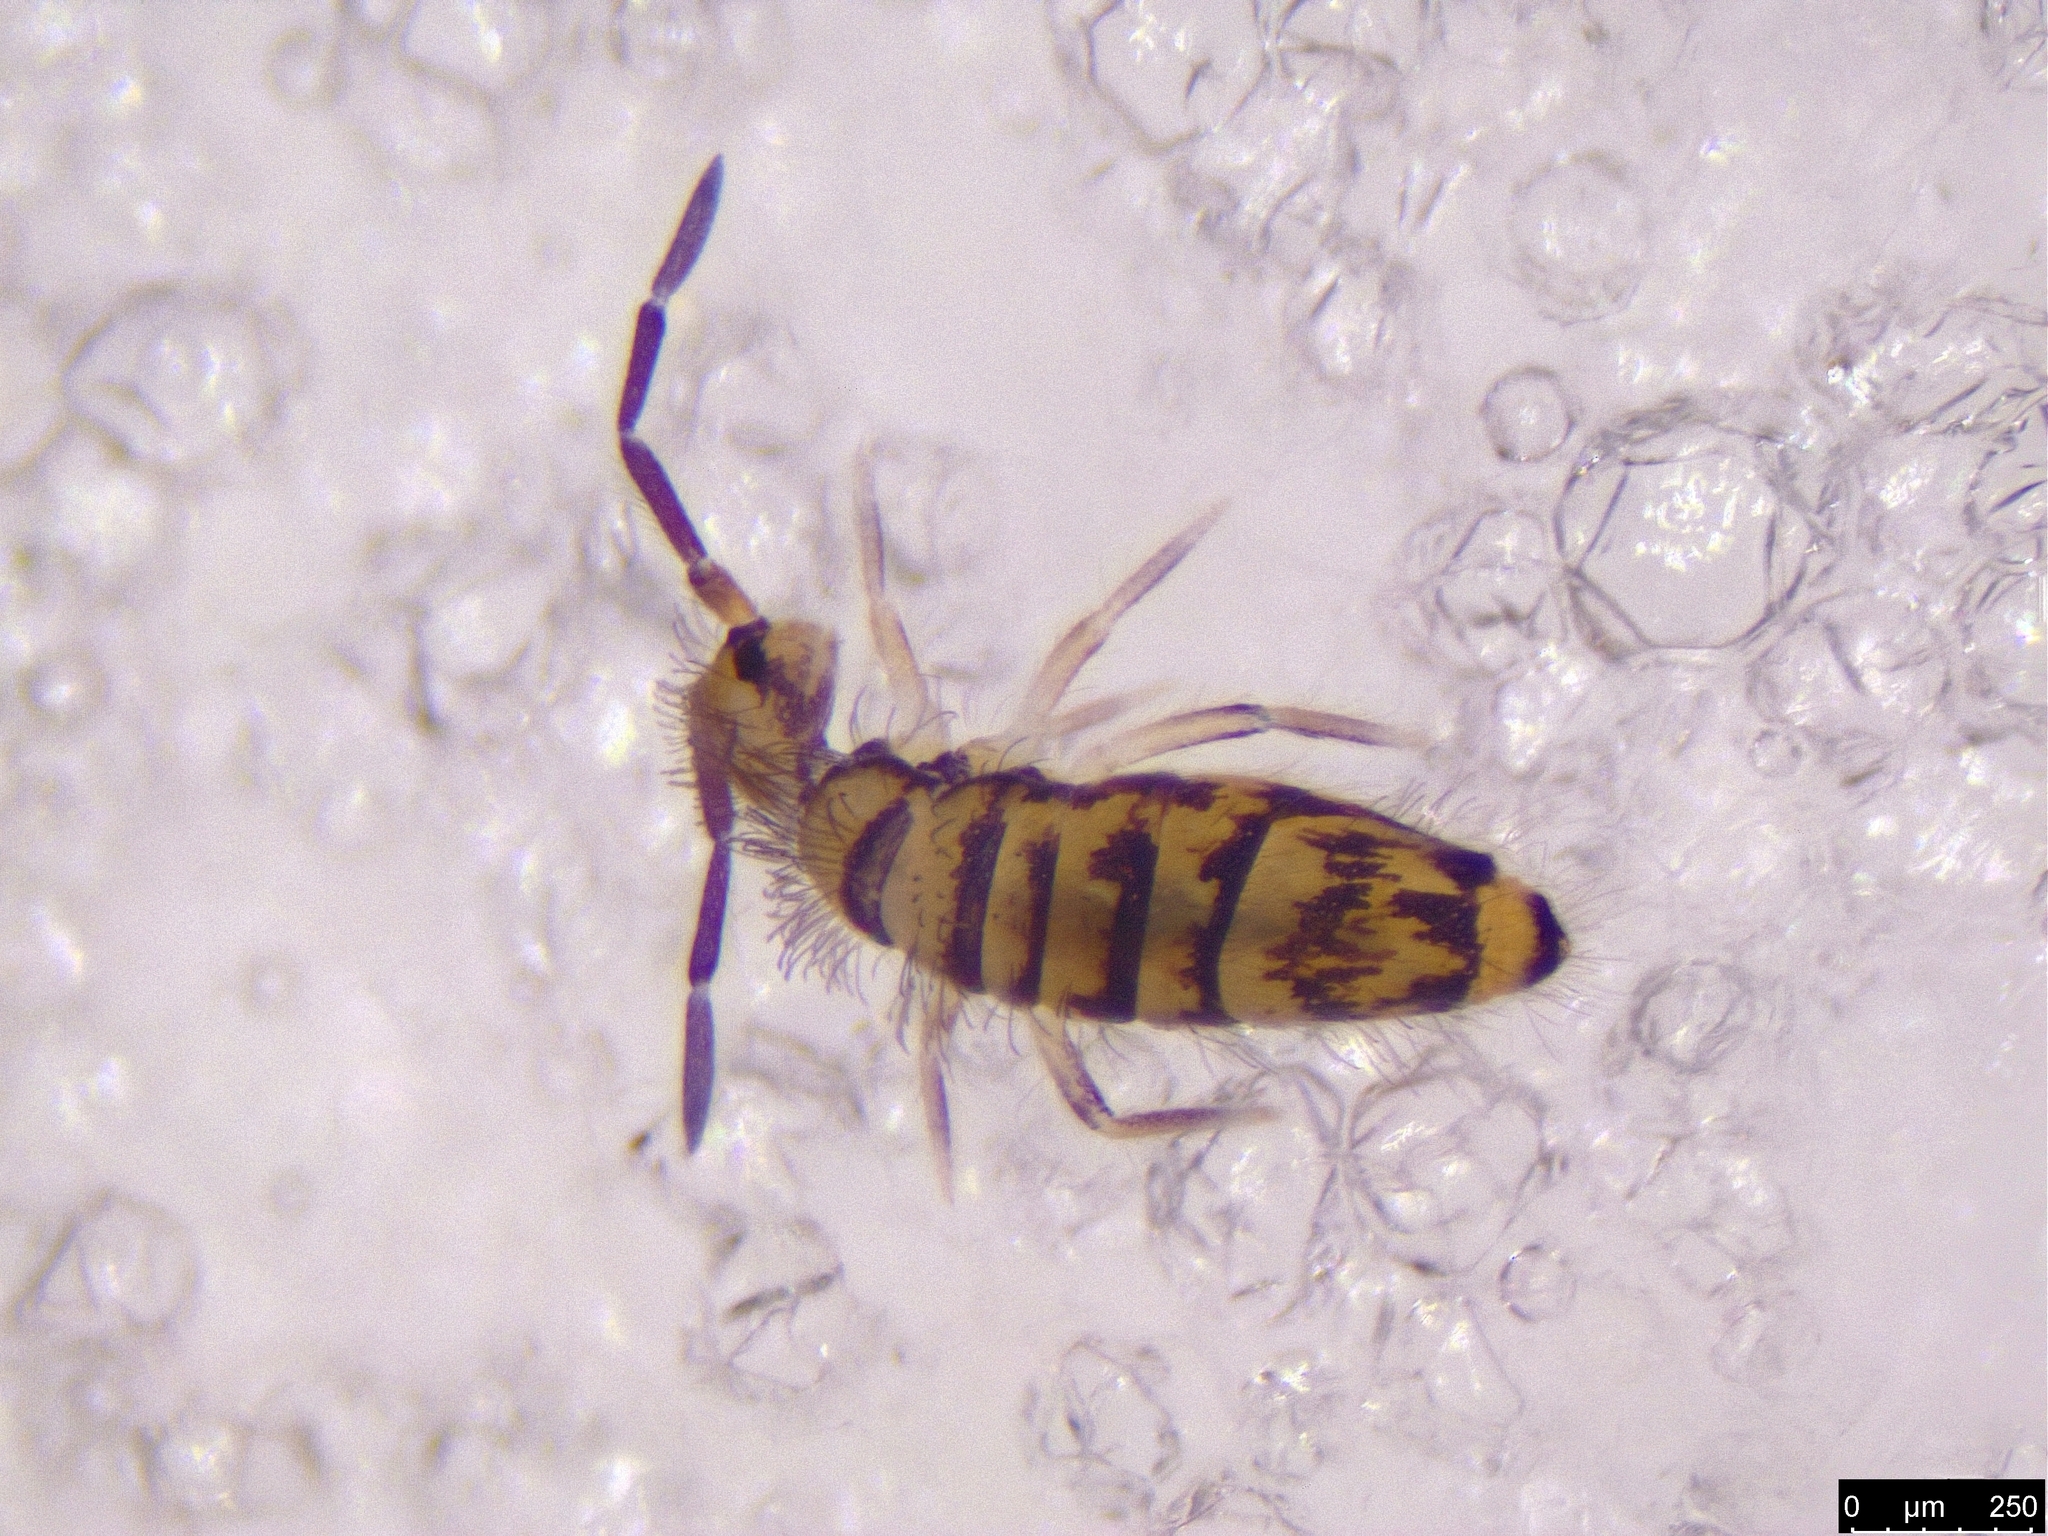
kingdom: Animalia
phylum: Arthropoda
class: Collembola
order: Entomobryomorpha
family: Entomobryidae
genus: Entomobrya
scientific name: Entomobrya multifasciata
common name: Springtail
